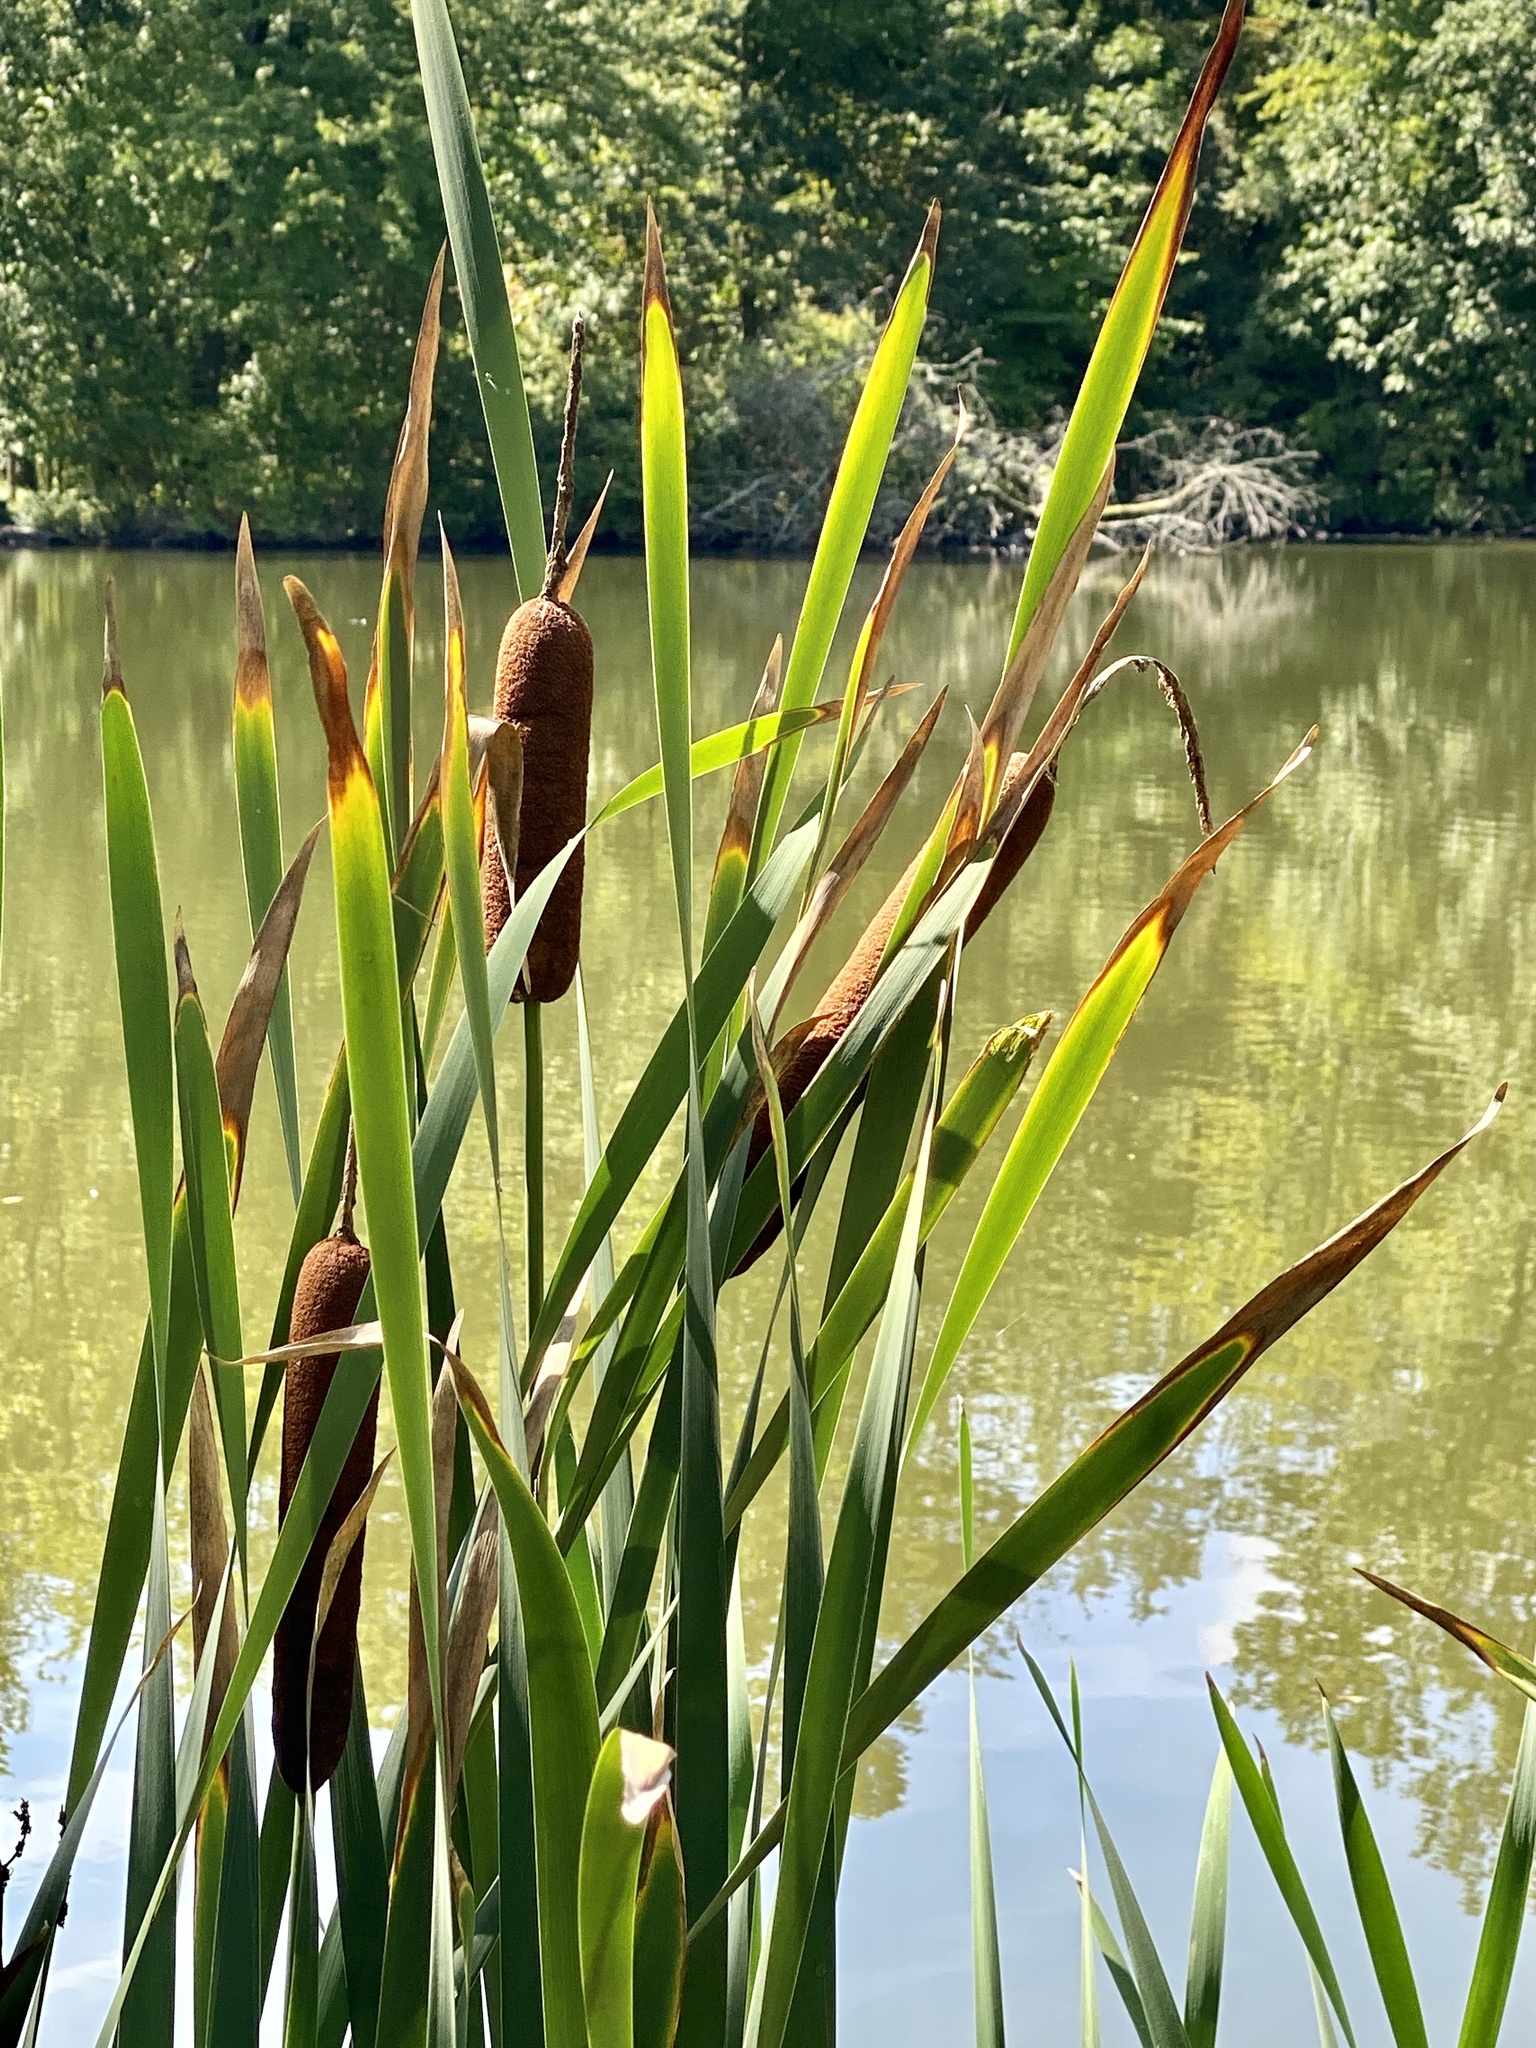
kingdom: Plantae
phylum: Tracheophyta
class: Liliopsida
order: Poales
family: Typhaceae
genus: Typha
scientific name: Typha latifolia
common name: Broadleaf cattail
